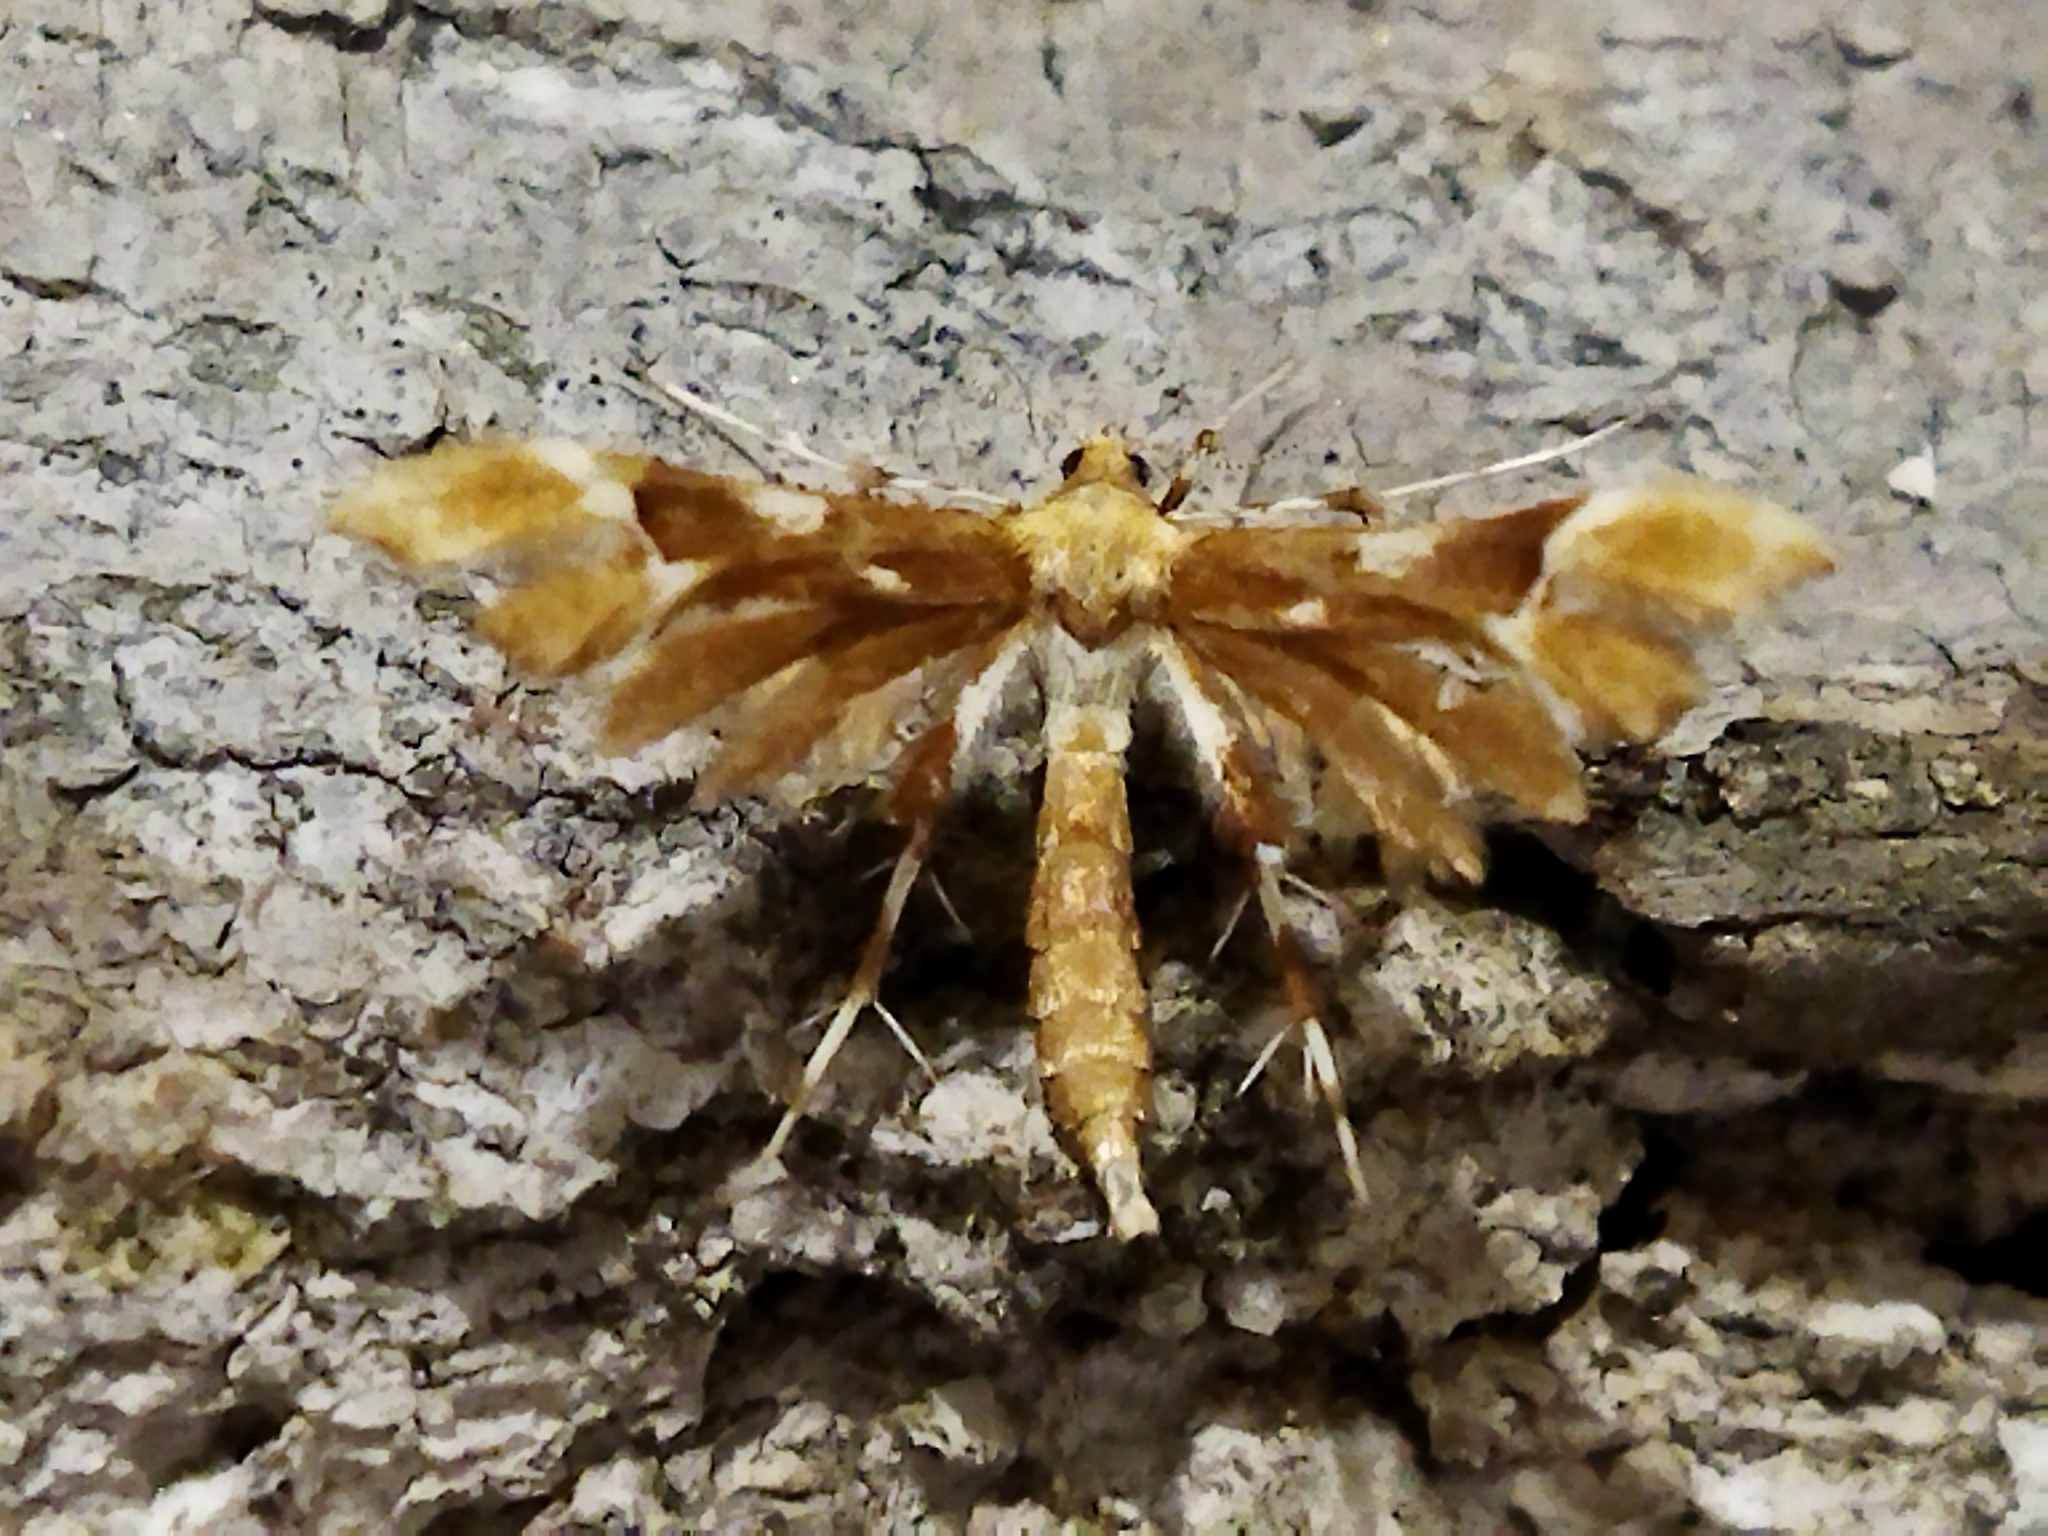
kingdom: Animalia
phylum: Arthropoda
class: Insecta
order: Lepidoptera
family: Pterophoridae
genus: Cnaemidophorus
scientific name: Cnaemidophorus rhododactyla
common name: Rose plume
